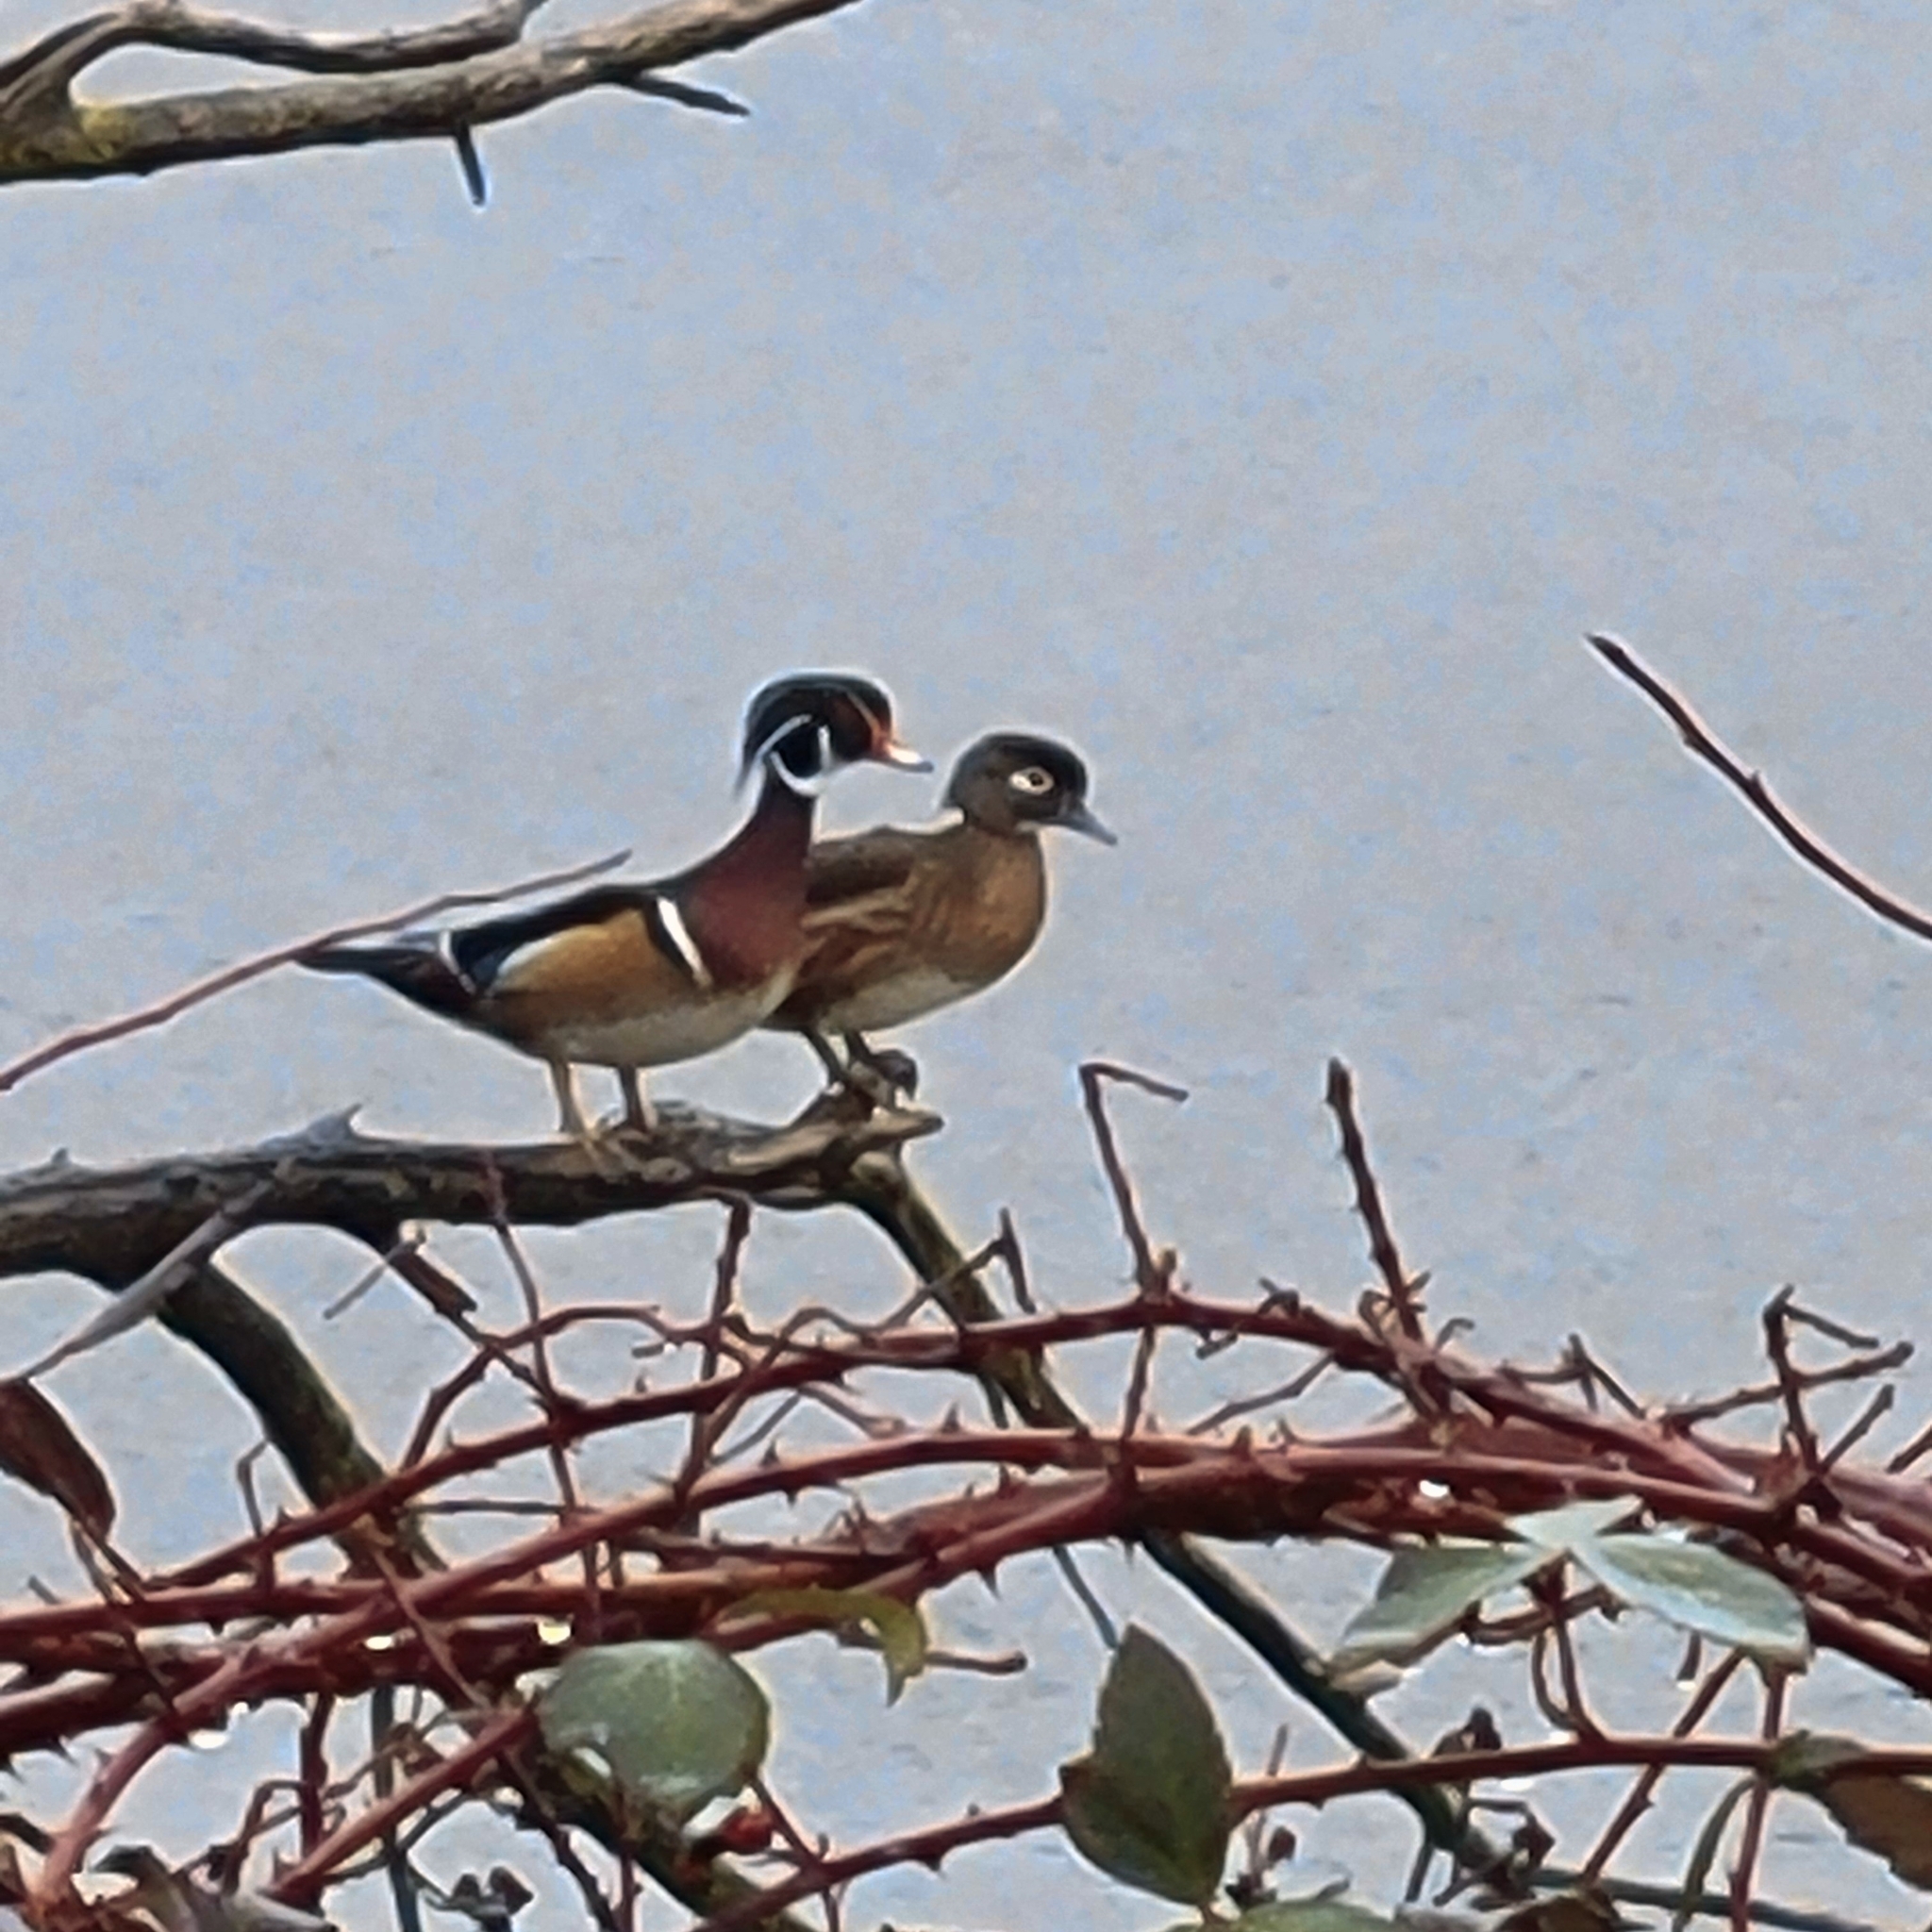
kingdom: Animalia
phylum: Chordata
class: Aves
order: Anseriformes
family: Anatidae
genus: Aix
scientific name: Aix sponsa
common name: Wood duck
